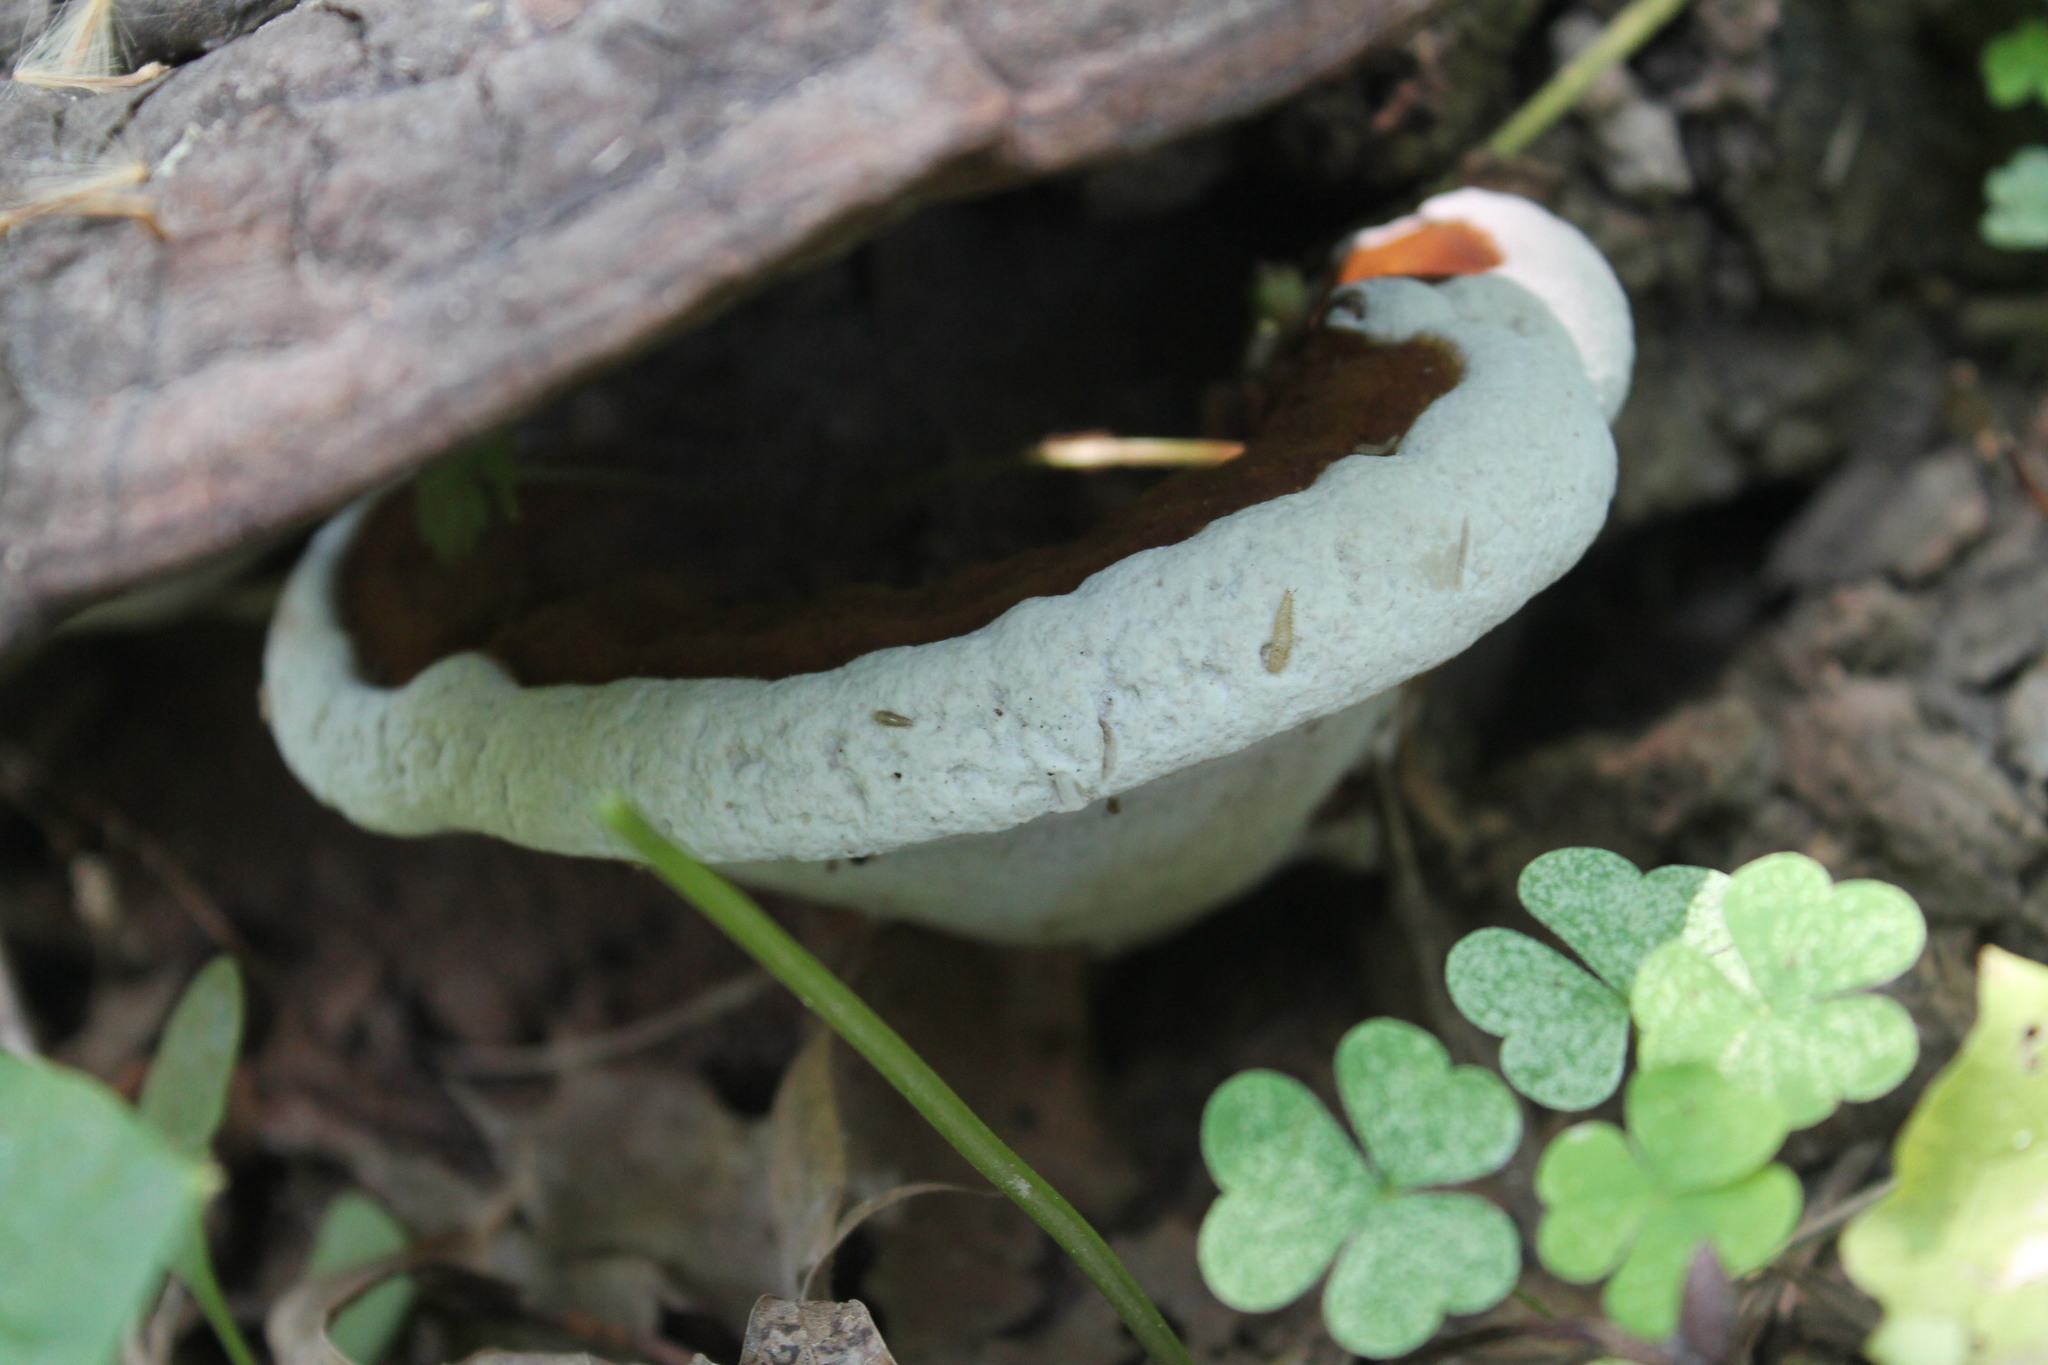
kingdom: Fungi
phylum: Basidiomycota
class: Agaricomycetes
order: Polyporales
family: Polyporaceae
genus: Ganoderma
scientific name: Ganoderma lobatum
